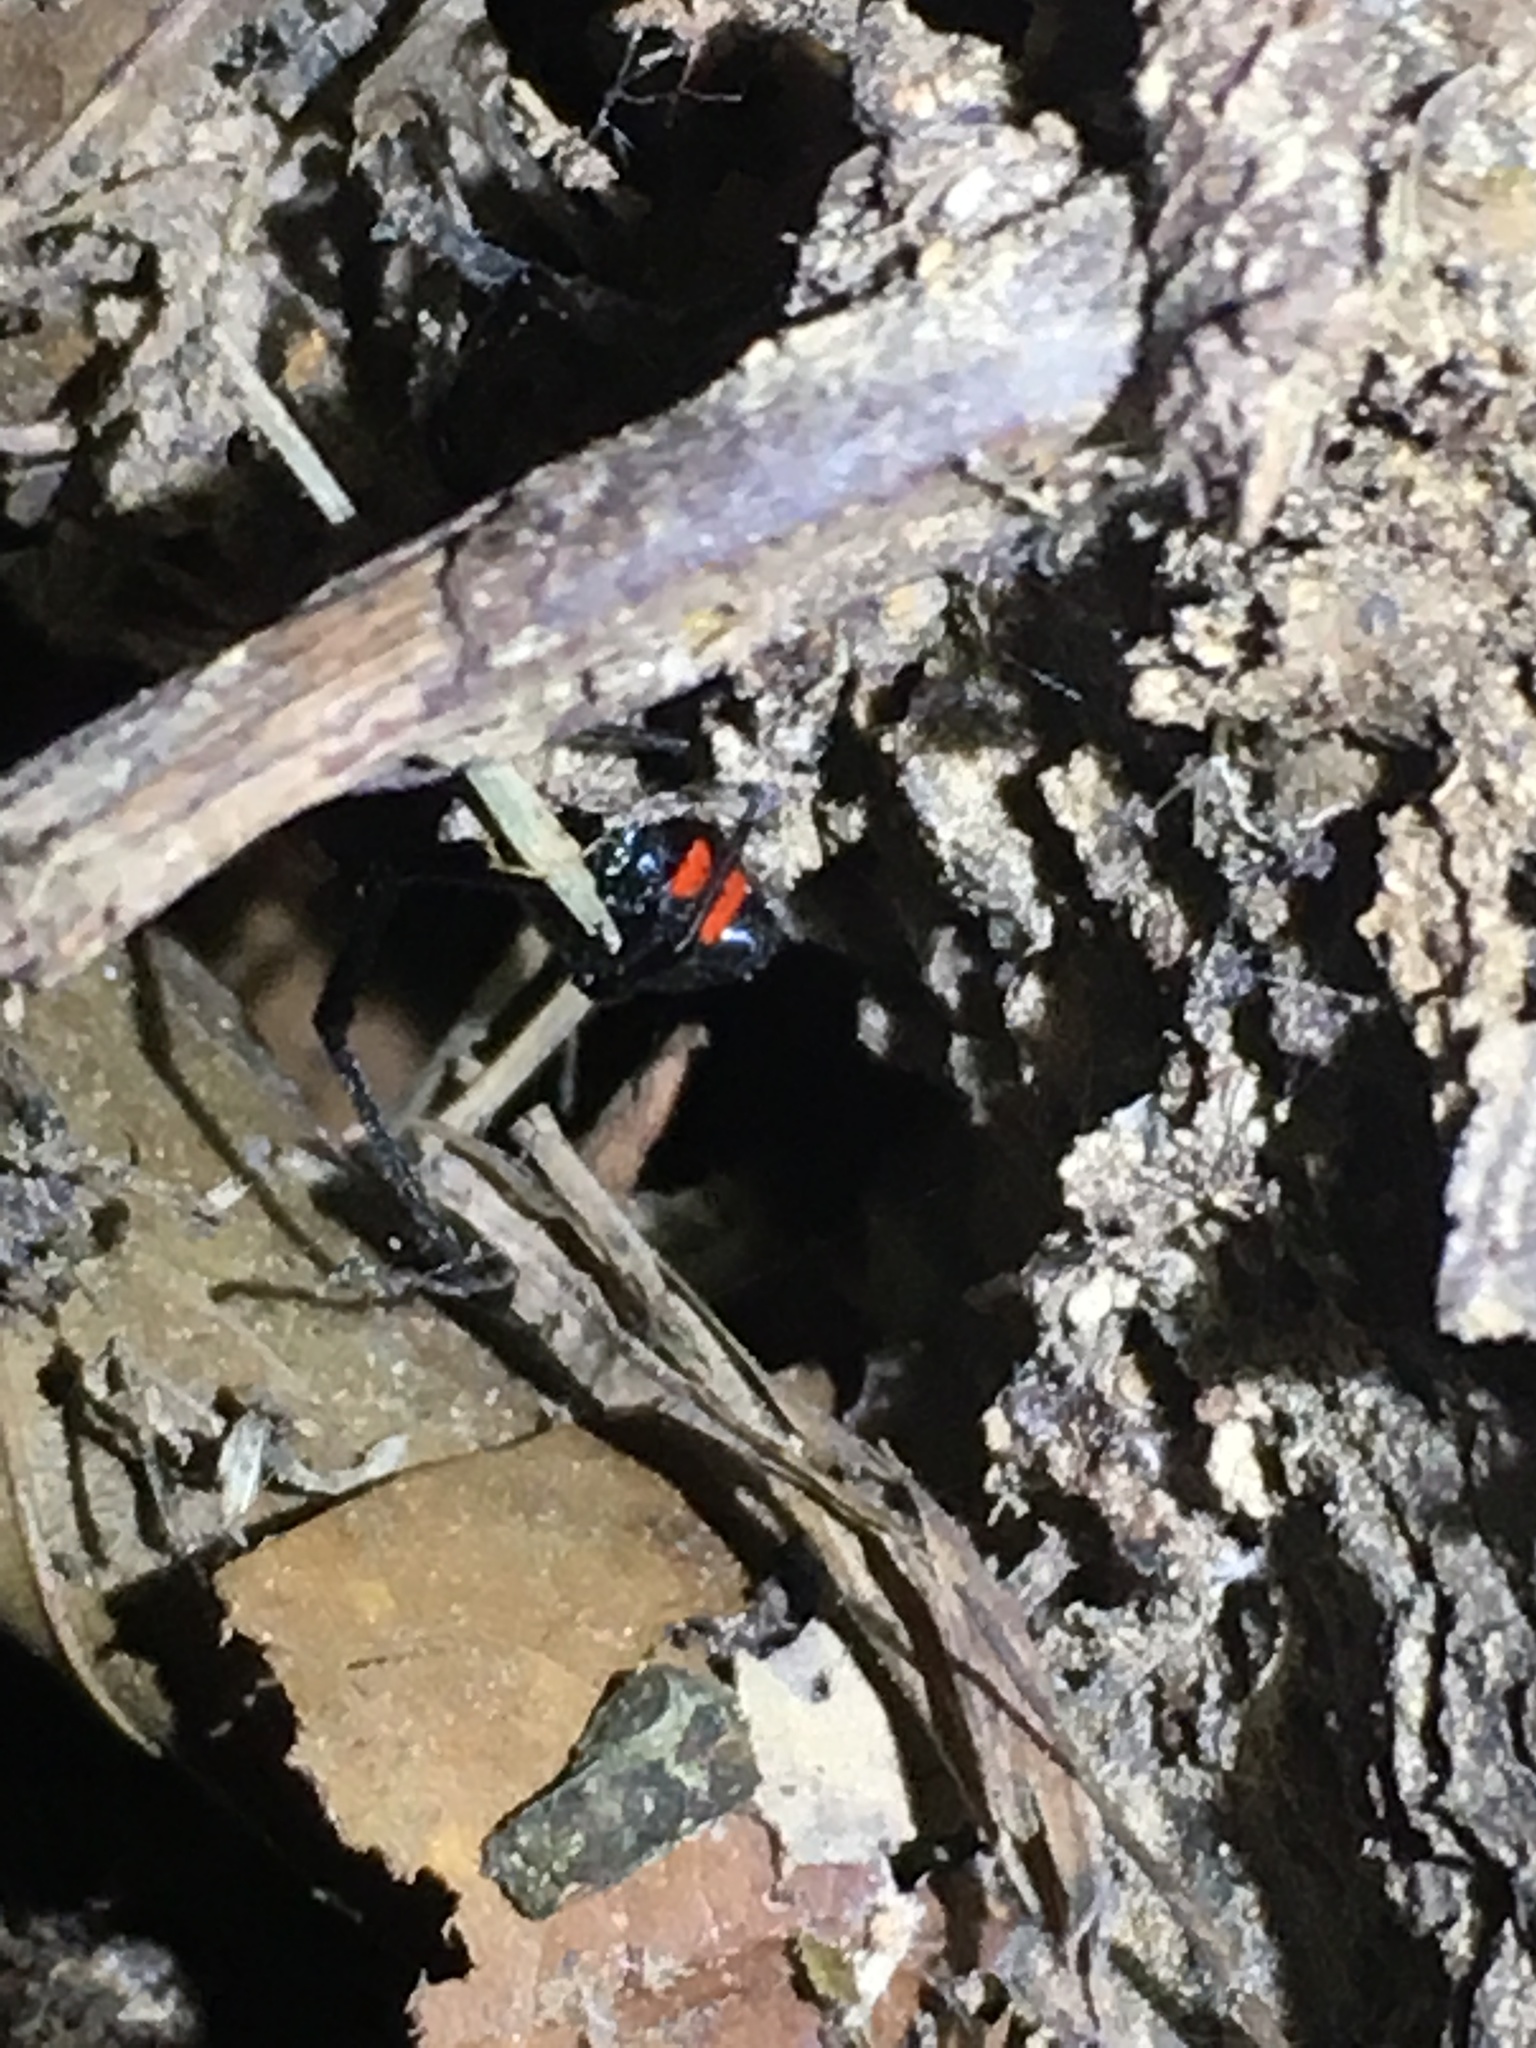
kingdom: Animalia
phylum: Arthropoda
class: Arachnida
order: Araneae
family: Theridiidae
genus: Latrodectus
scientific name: Latrodectus mactans
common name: Cobweb spiders
